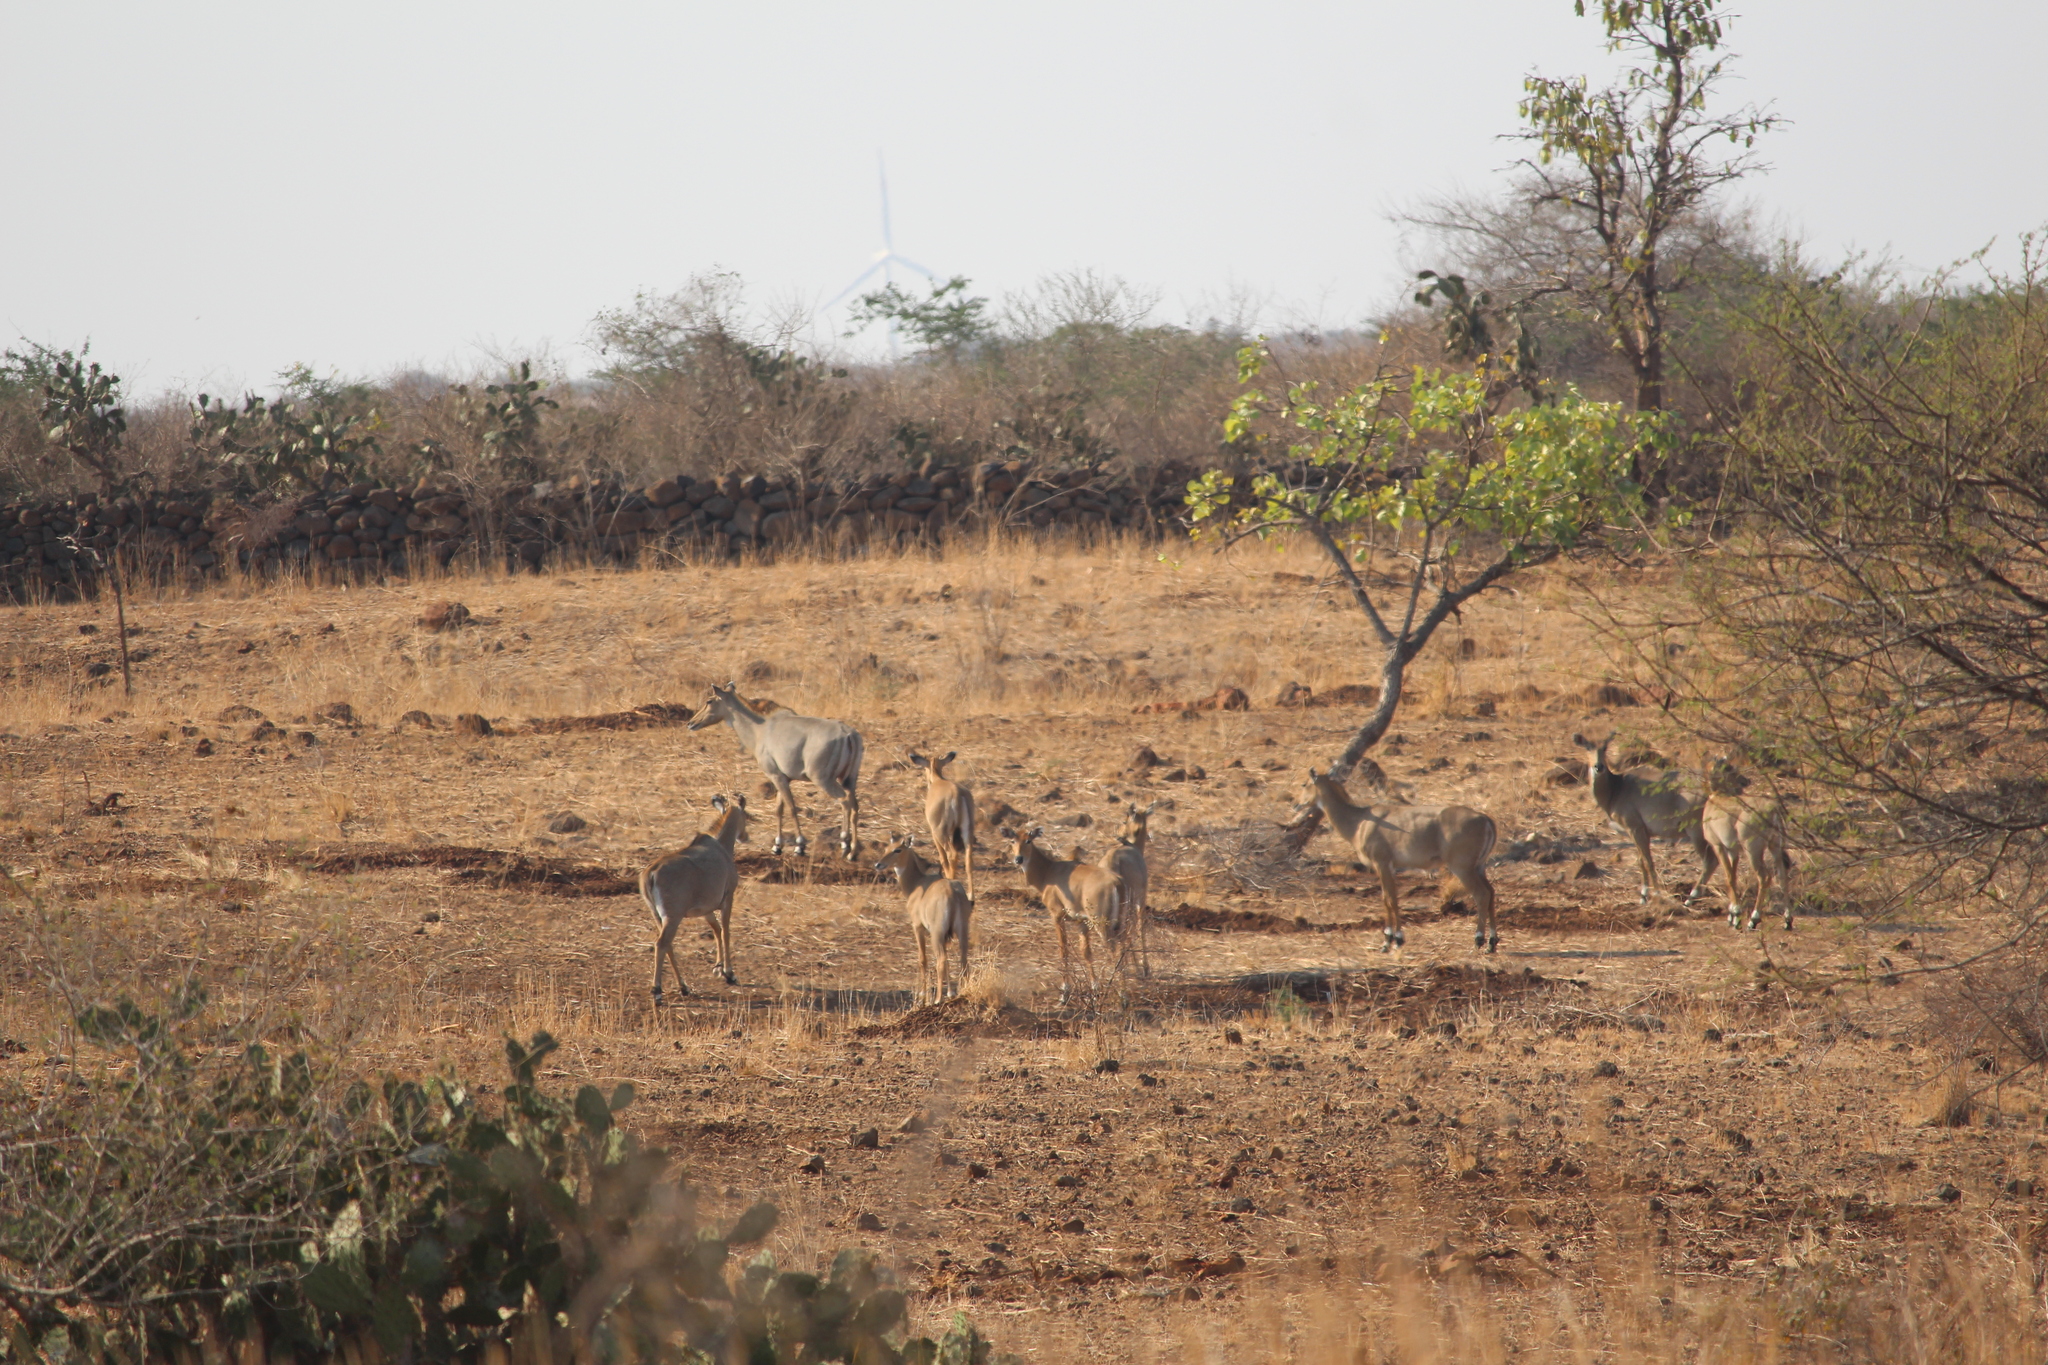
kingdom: Animalia
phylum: Chordata
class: Mammalia
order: Artiodactyla
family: Bovidae
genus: Boselaphus
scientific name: Boselaphus tragocamelus
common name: Nilgai
